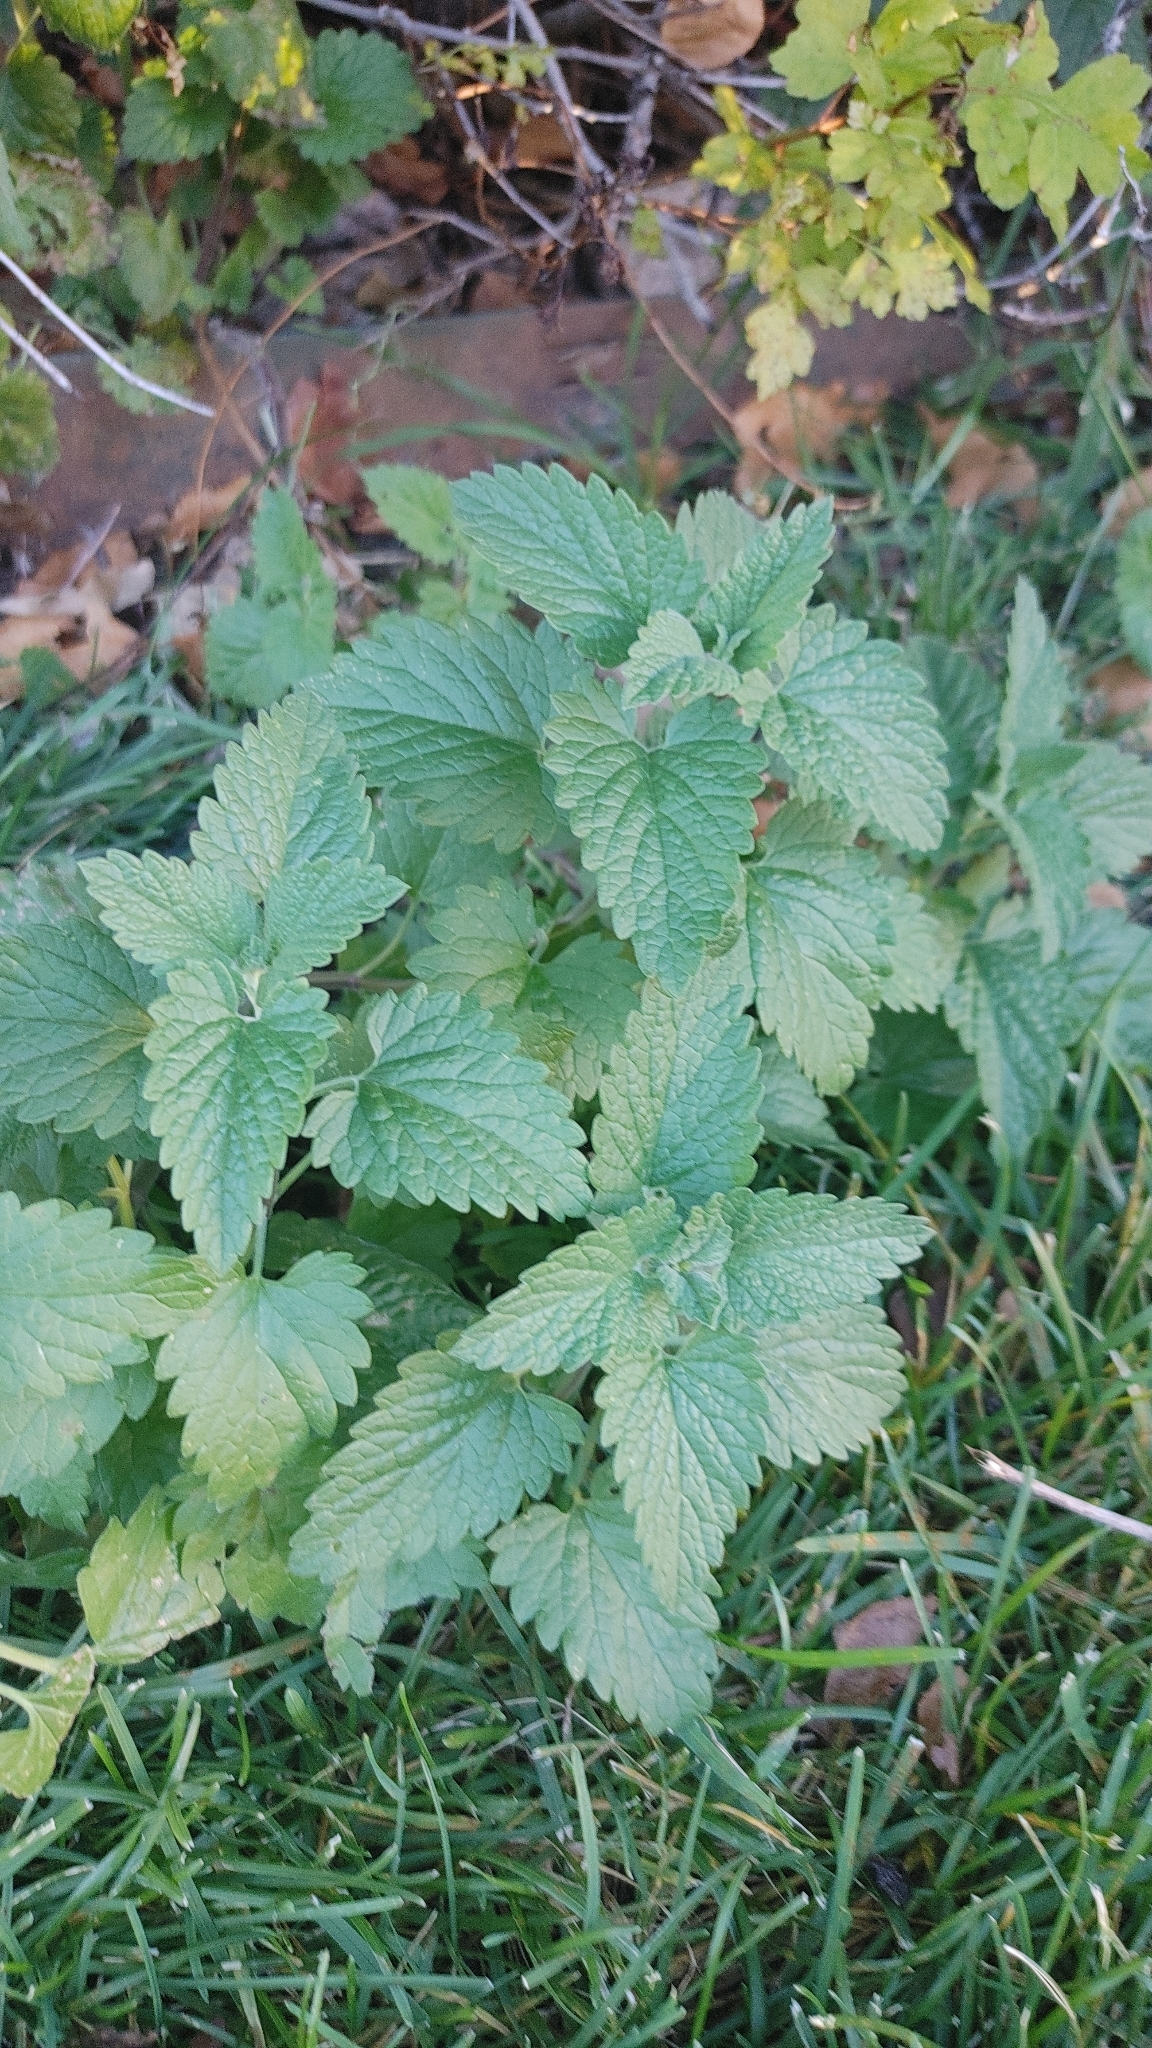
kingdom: Plantae
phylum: Tracheophyta
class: Magnoliopsida
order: Lamiales
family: Lamiaceae
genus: Nepeta
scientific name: Nepeta cataria
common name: Catnip
